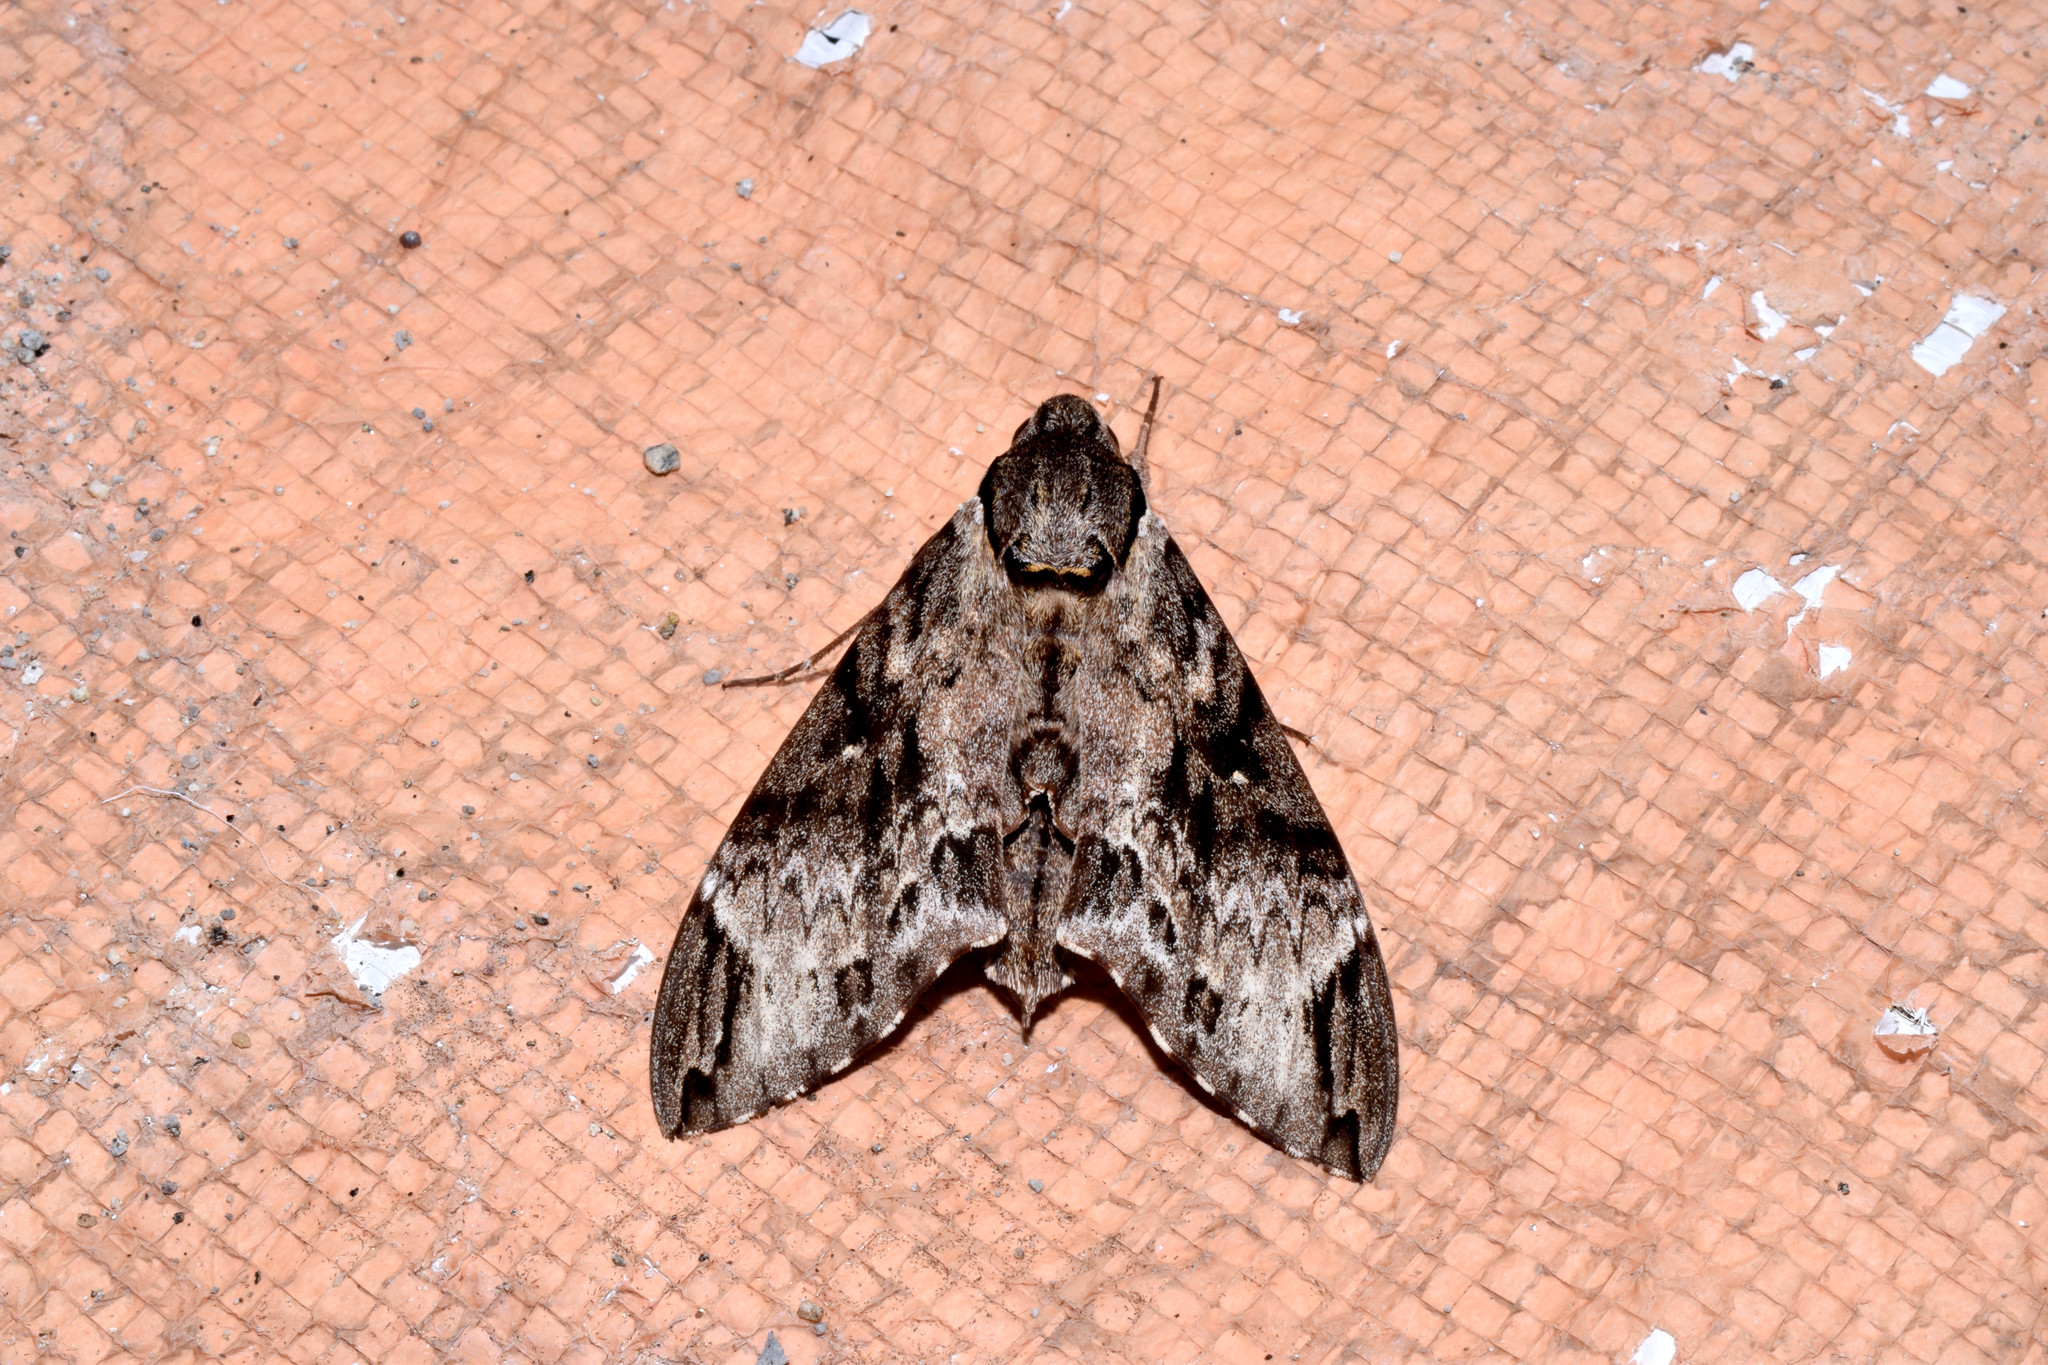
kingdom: Animalia
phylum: Arthropoda
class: Insecta
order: Lepidoptera
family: Sphingidae
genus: Psilogramma
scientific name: Psilogramma discistriga
